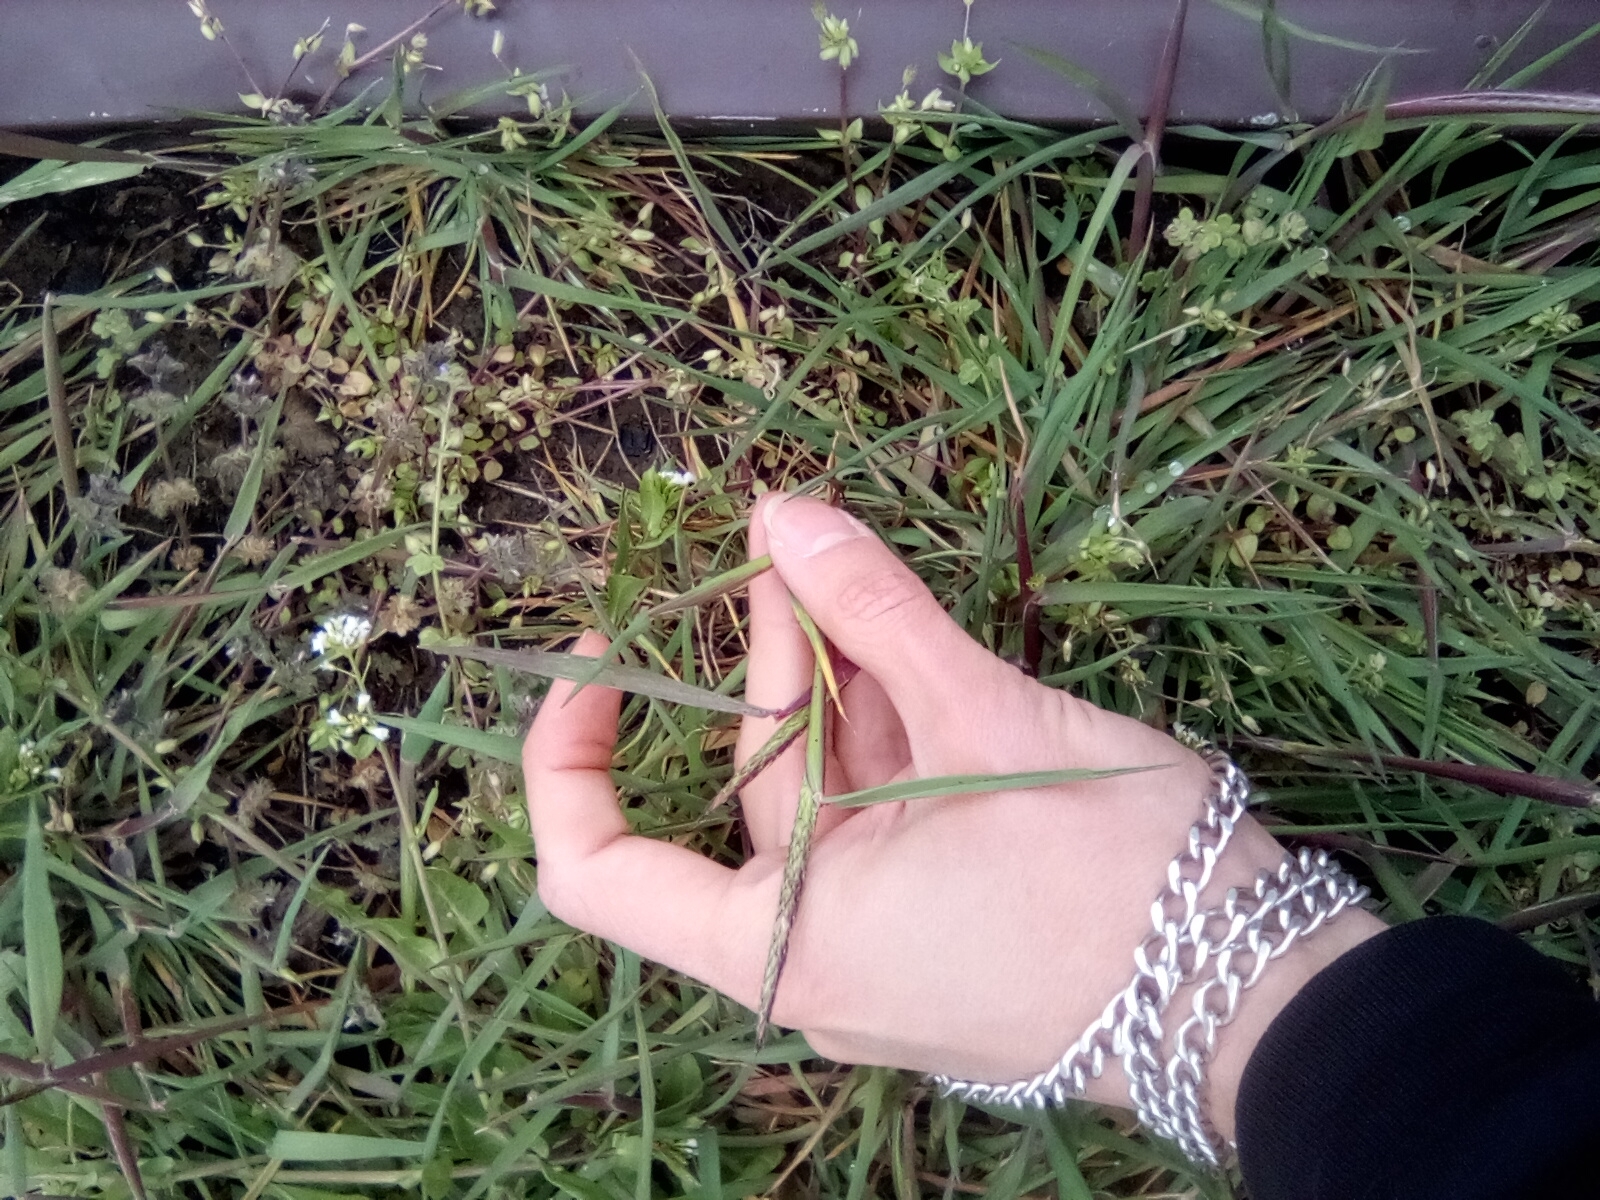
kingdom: Plantae
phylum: Tracheophyta
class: Liliopsida
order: Poales
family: Poaceae
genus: Alopecurus
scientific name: Alopecurus myosuroides
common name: Black-grass
